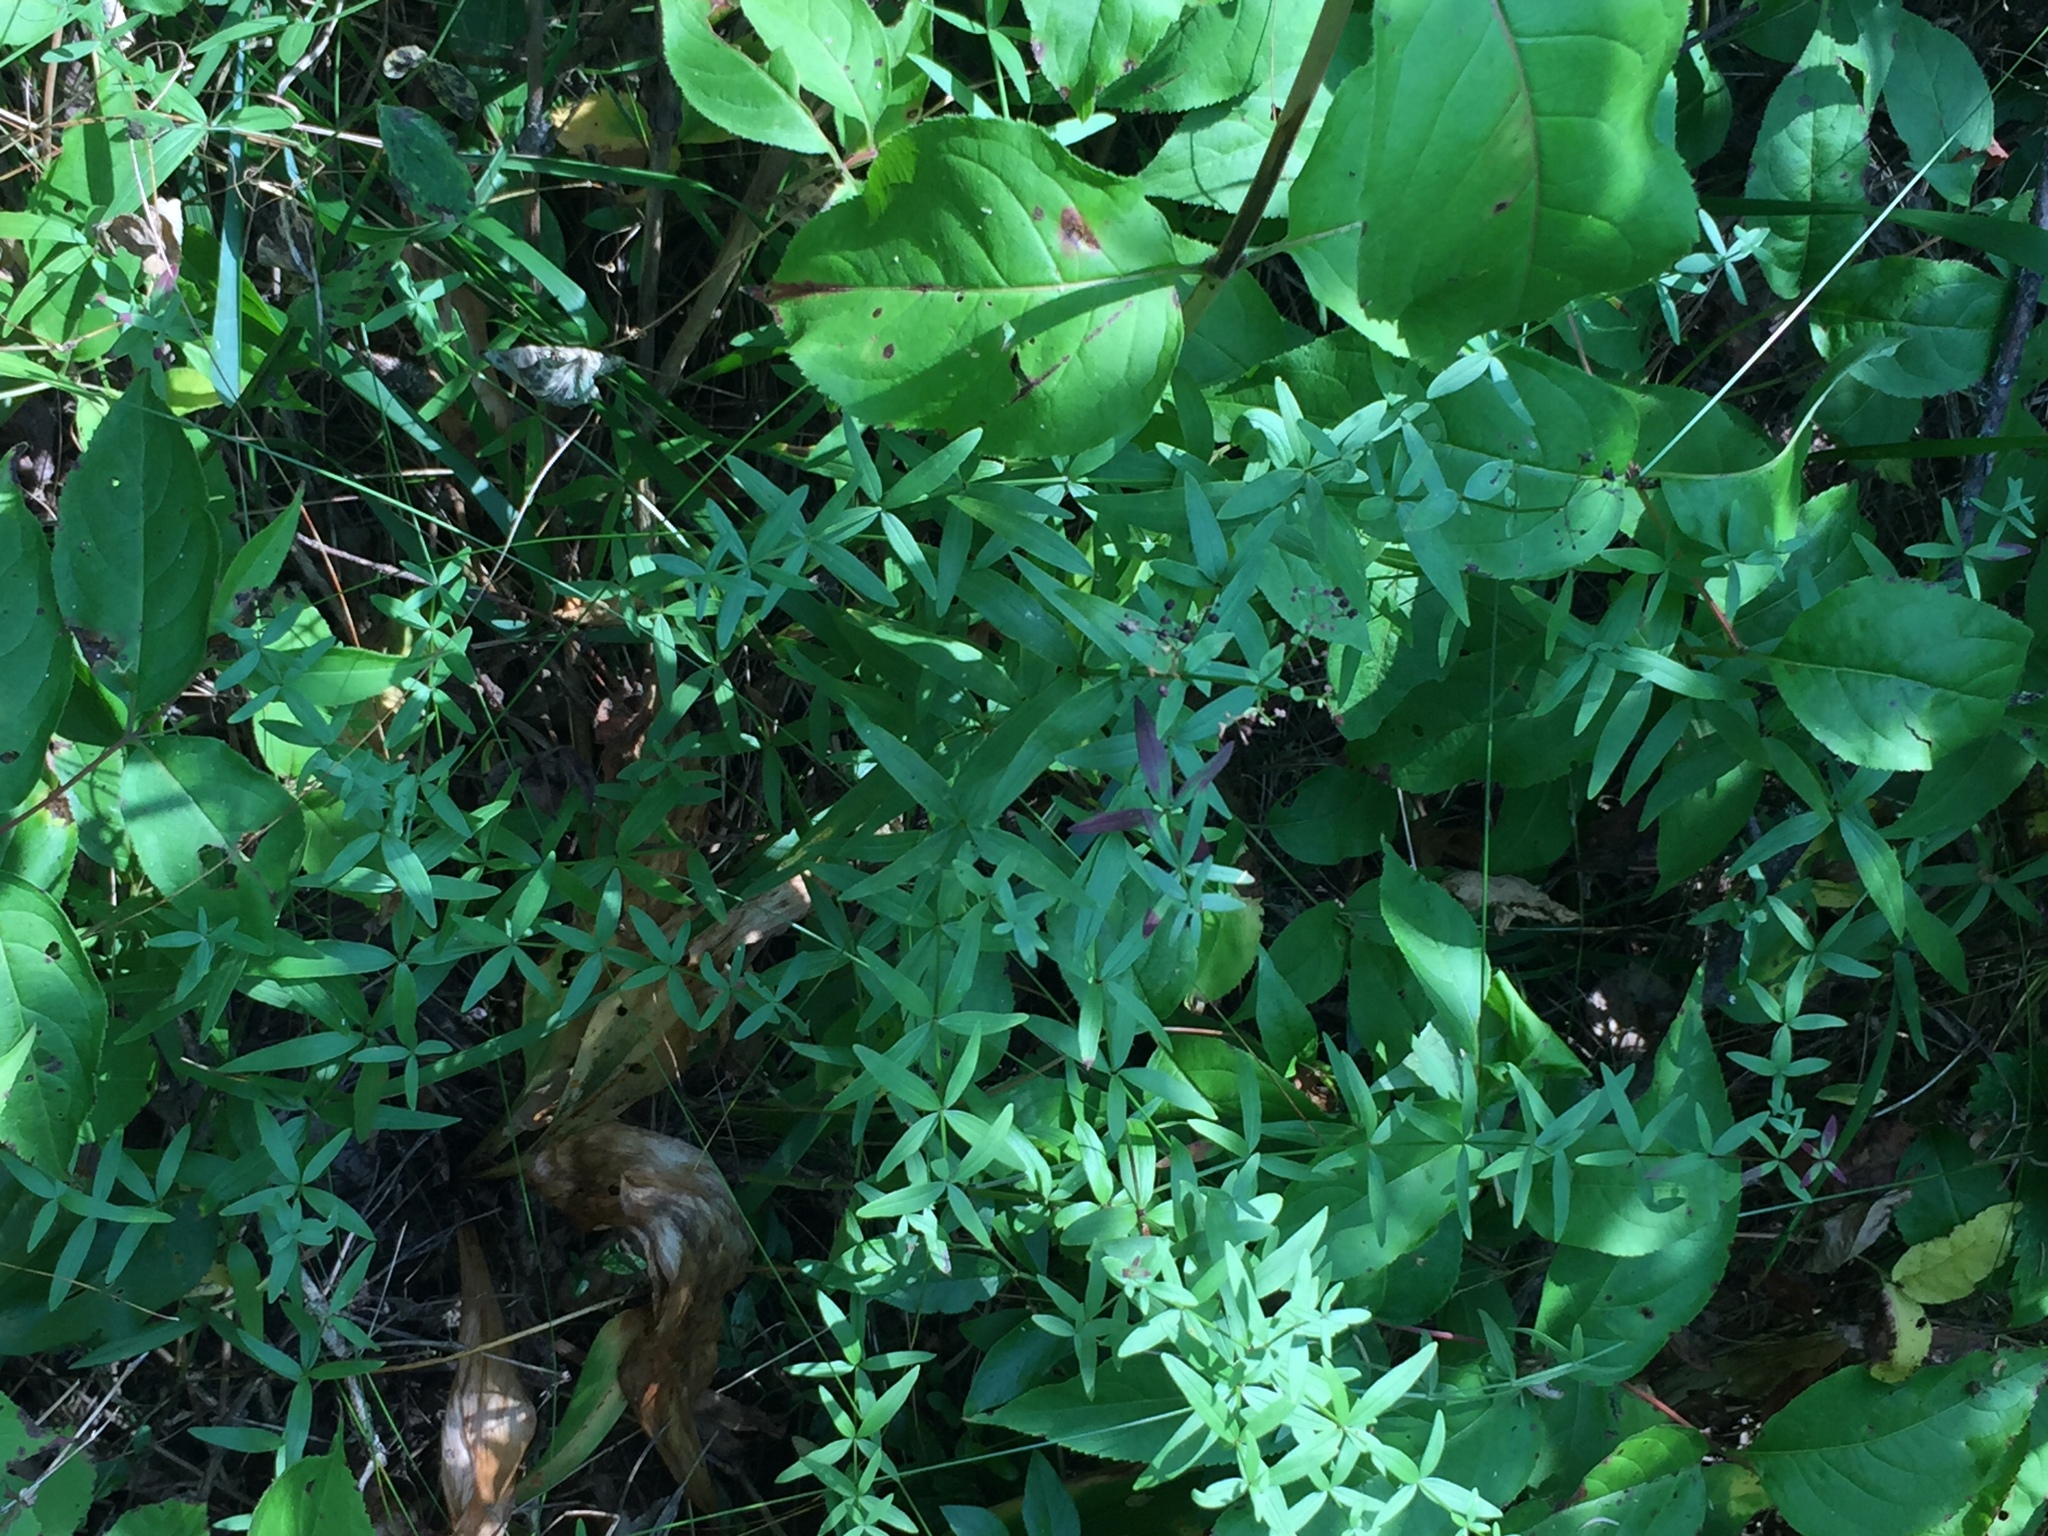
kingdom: Plantae
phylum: Tracheophyta
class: Magnoliopsida
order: Gentianales
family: Rubiaceae
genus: Galium
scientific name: Galium boreale
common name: Northern bedstraw
